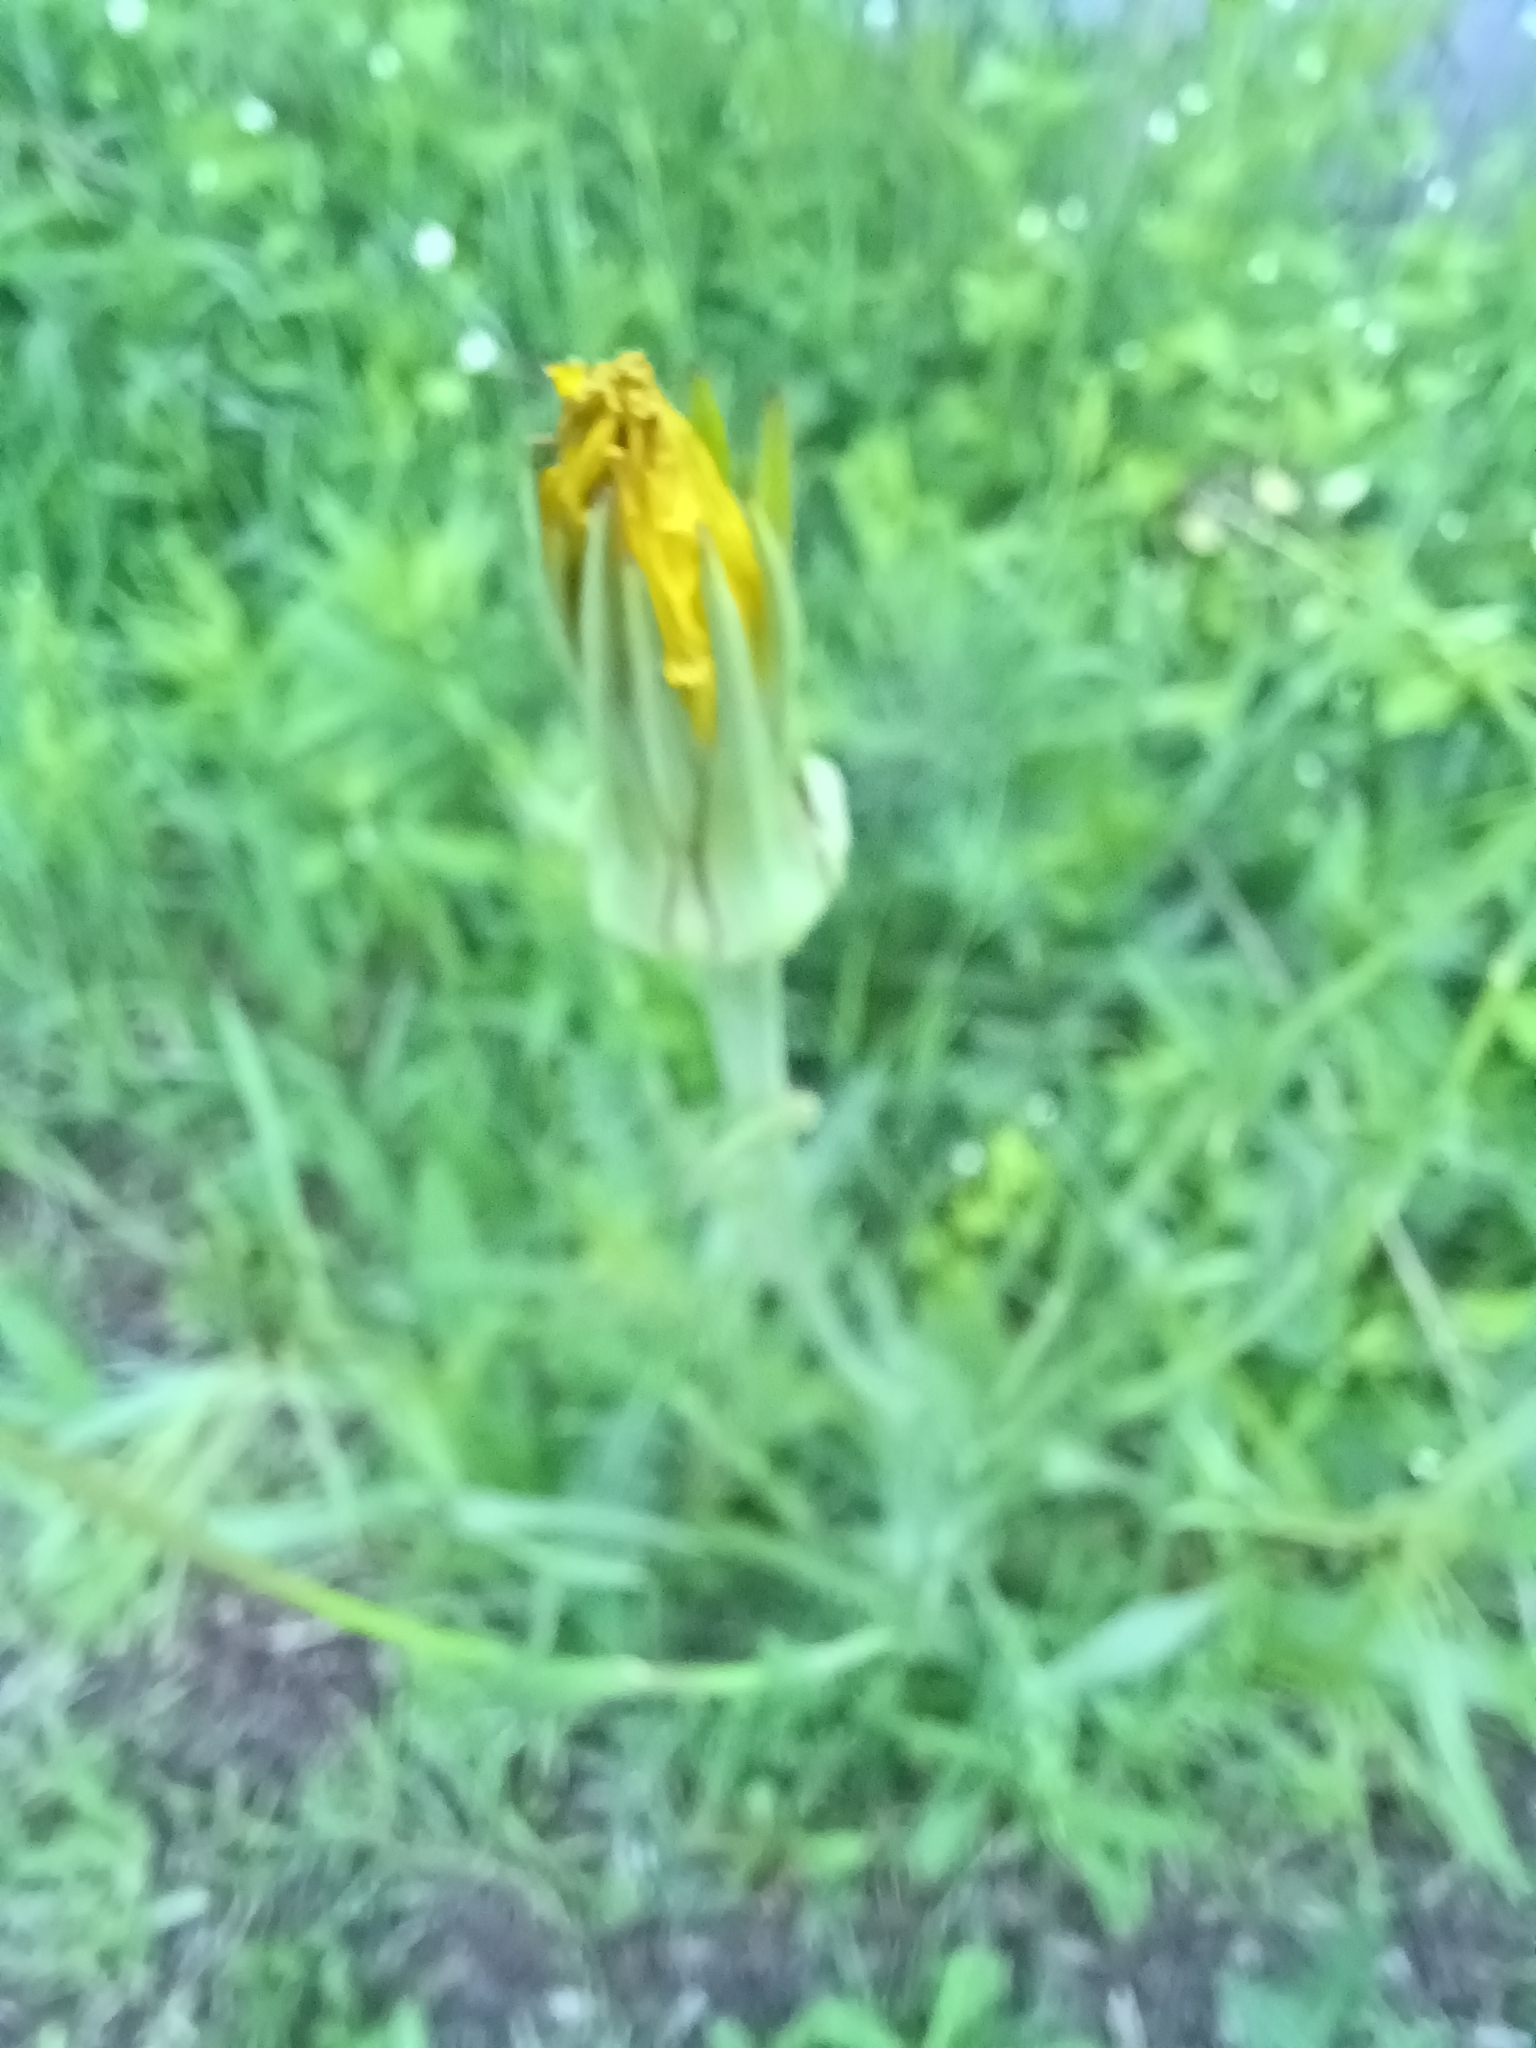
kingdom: Plantae
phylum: Tracheophyta
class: Magnoliopsida
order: Asterales
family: Asteraceae
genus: Tragopogon
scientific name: Tragopogon pratensis
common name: Goat's-beard
